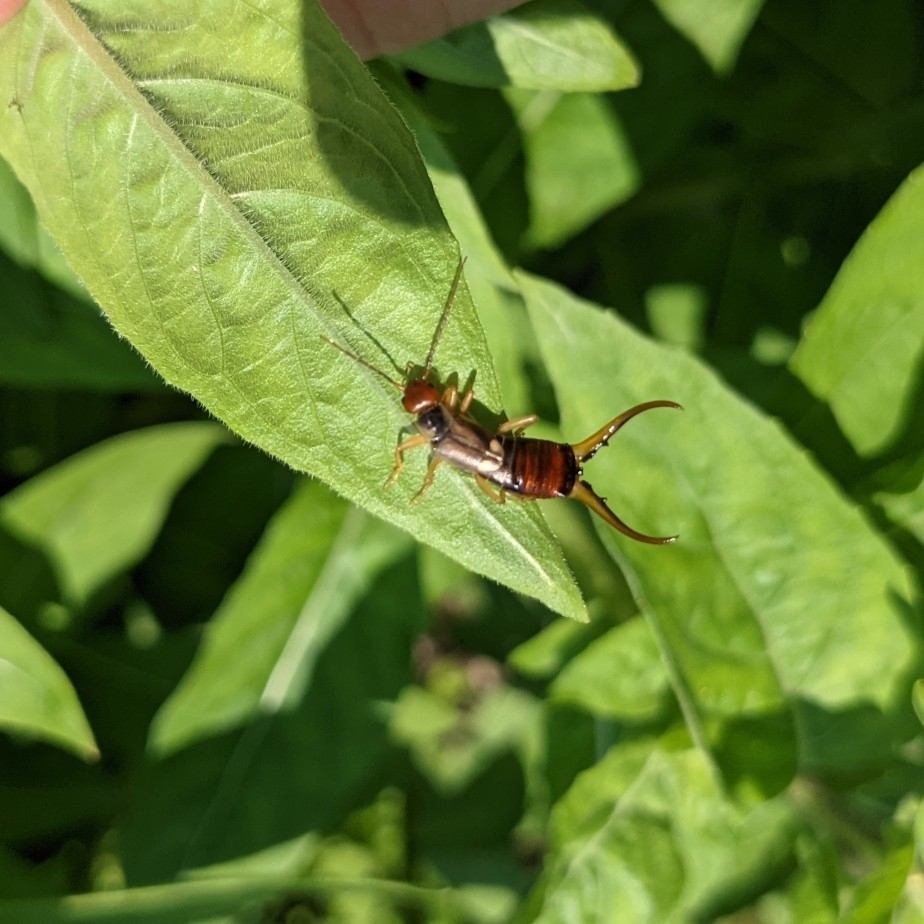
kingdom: Animalia
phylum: Arthropoda
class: Insecta
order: Dermaptera
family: Forficulidae
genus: Forficula
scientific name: Forficula
